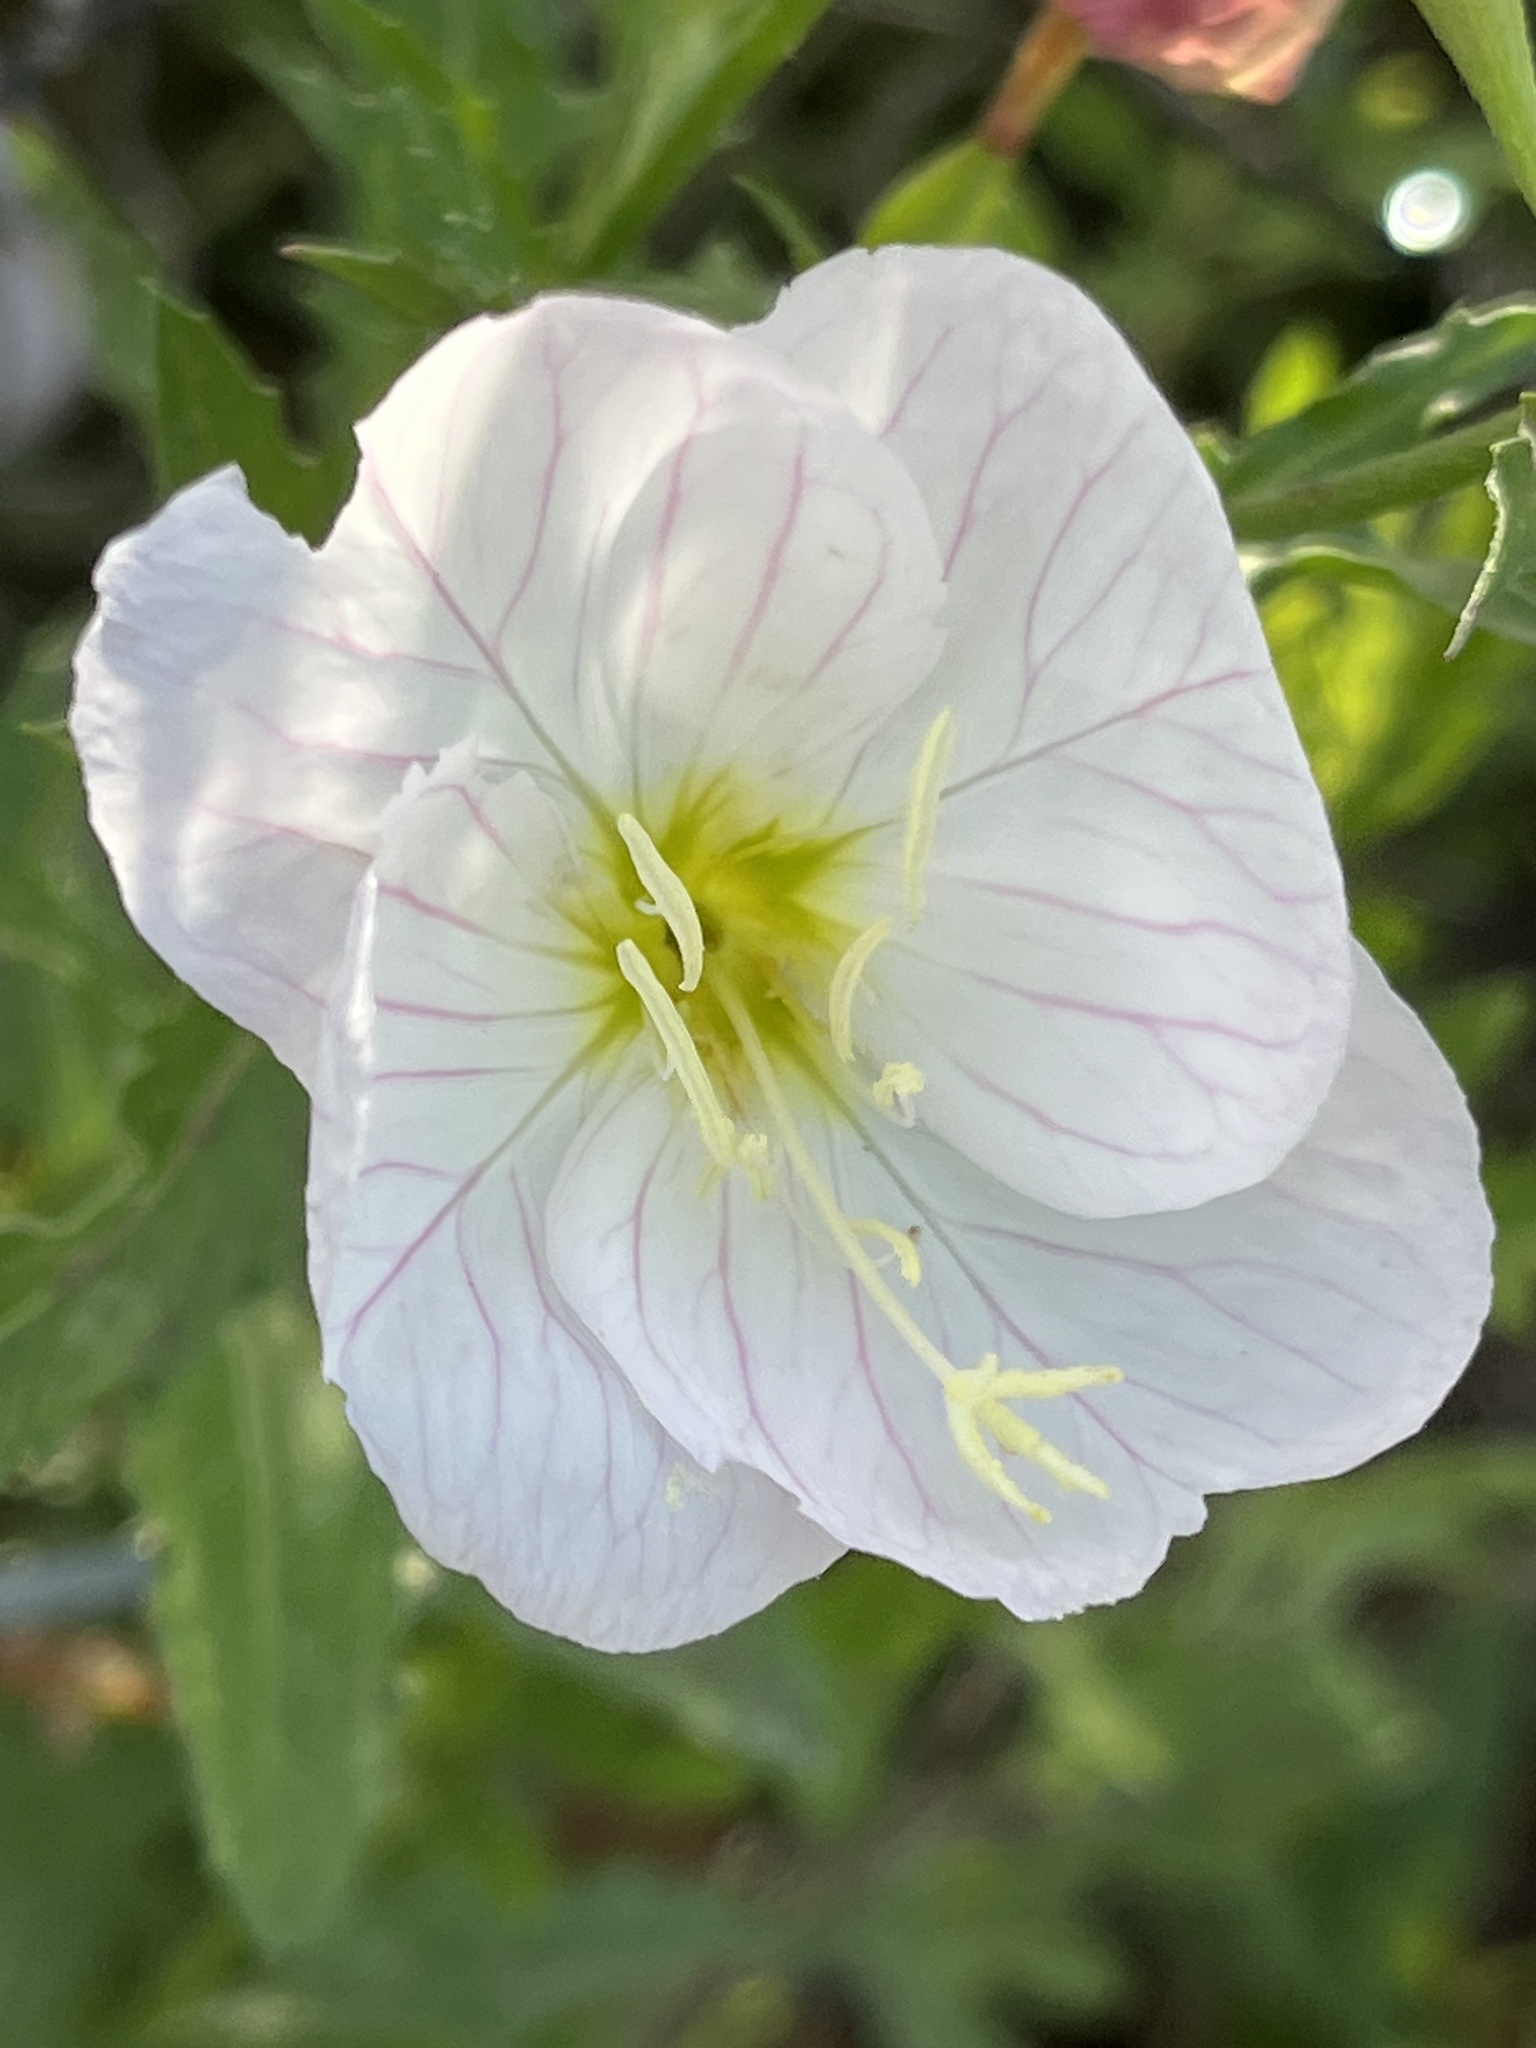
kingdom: Plantae
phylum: Tracheophyta
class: Magnoliopsida
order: Myrtales
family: Onagraceae
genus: Oenothera
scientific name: Oenothera speciosa
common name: White evening-primrose
